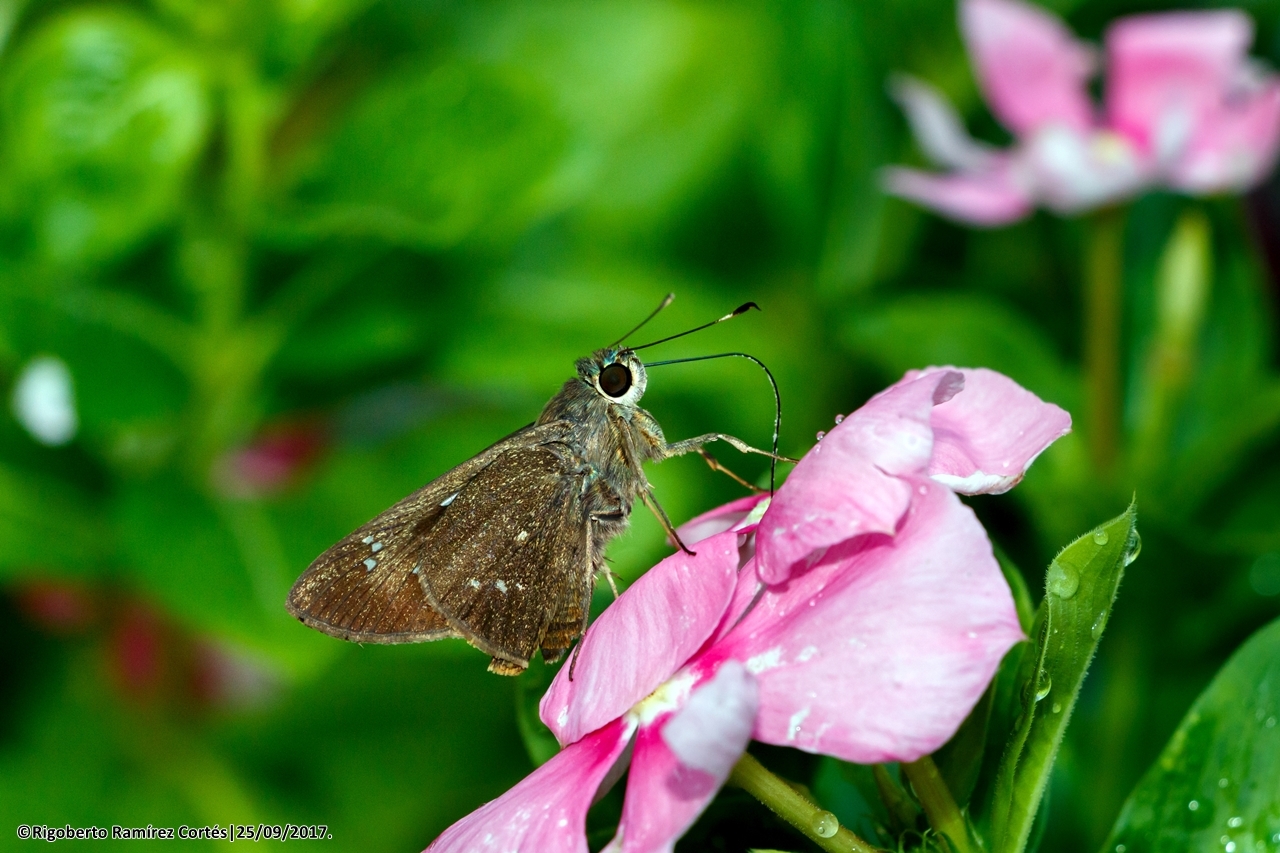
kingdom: Animalia
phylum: Arthropoda
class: Insecta
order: Lepidoptera
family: Hesperiidae
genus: Rhinthon
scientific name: Rhinthon cubana
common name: Cuban skipper
